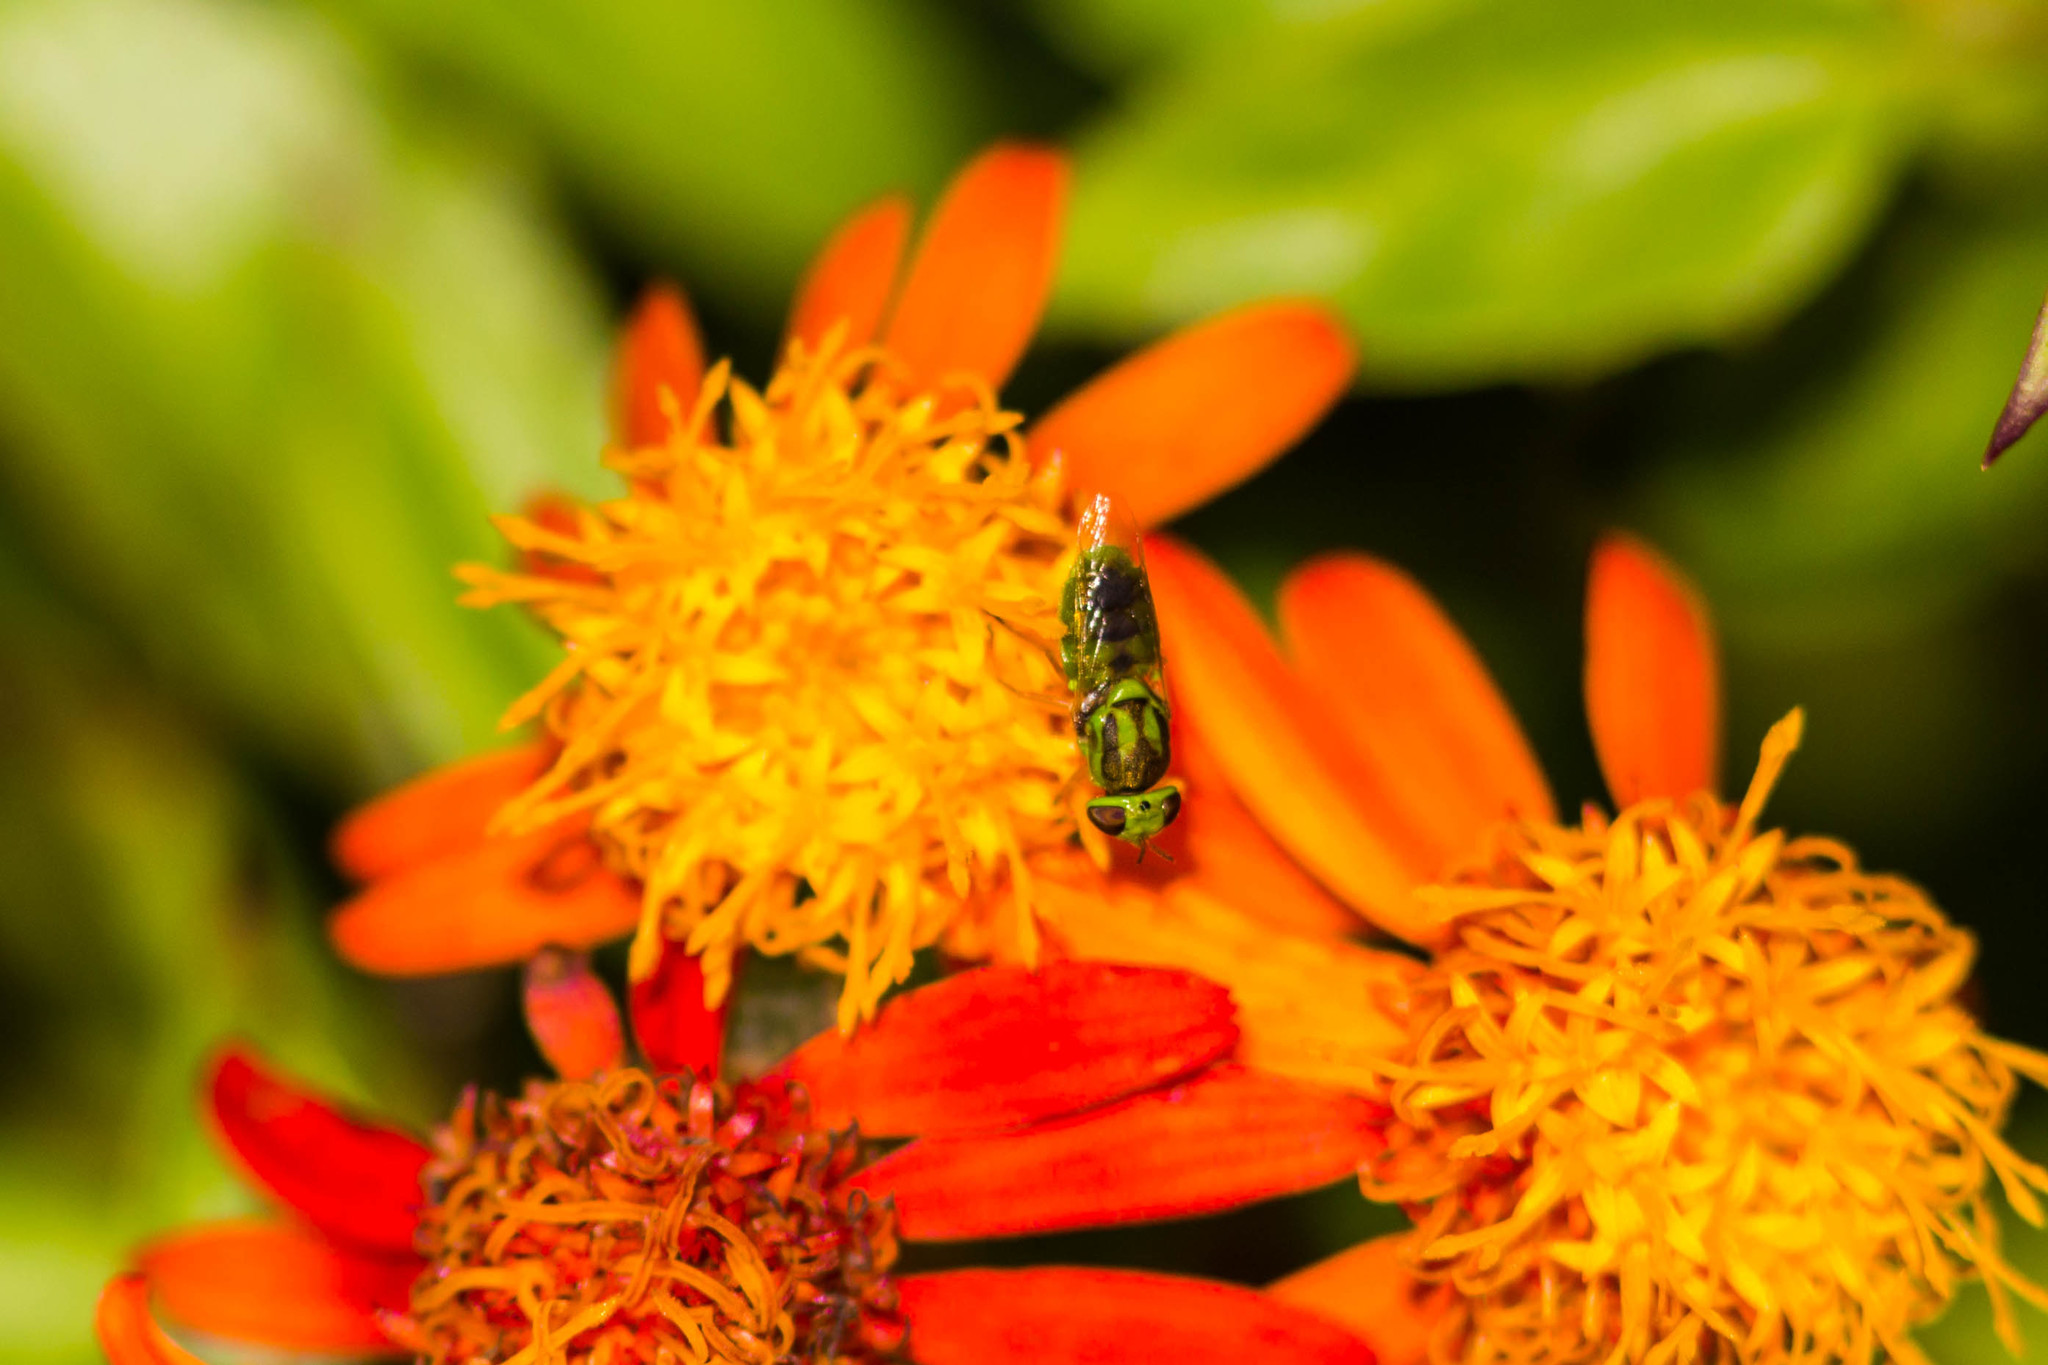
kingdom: Animalia
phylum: Arthropoda
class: Insecta
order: Diptera
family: Stratiomyidae
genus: Hedriodiscus
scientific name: Hedriodiscus trivittatus
